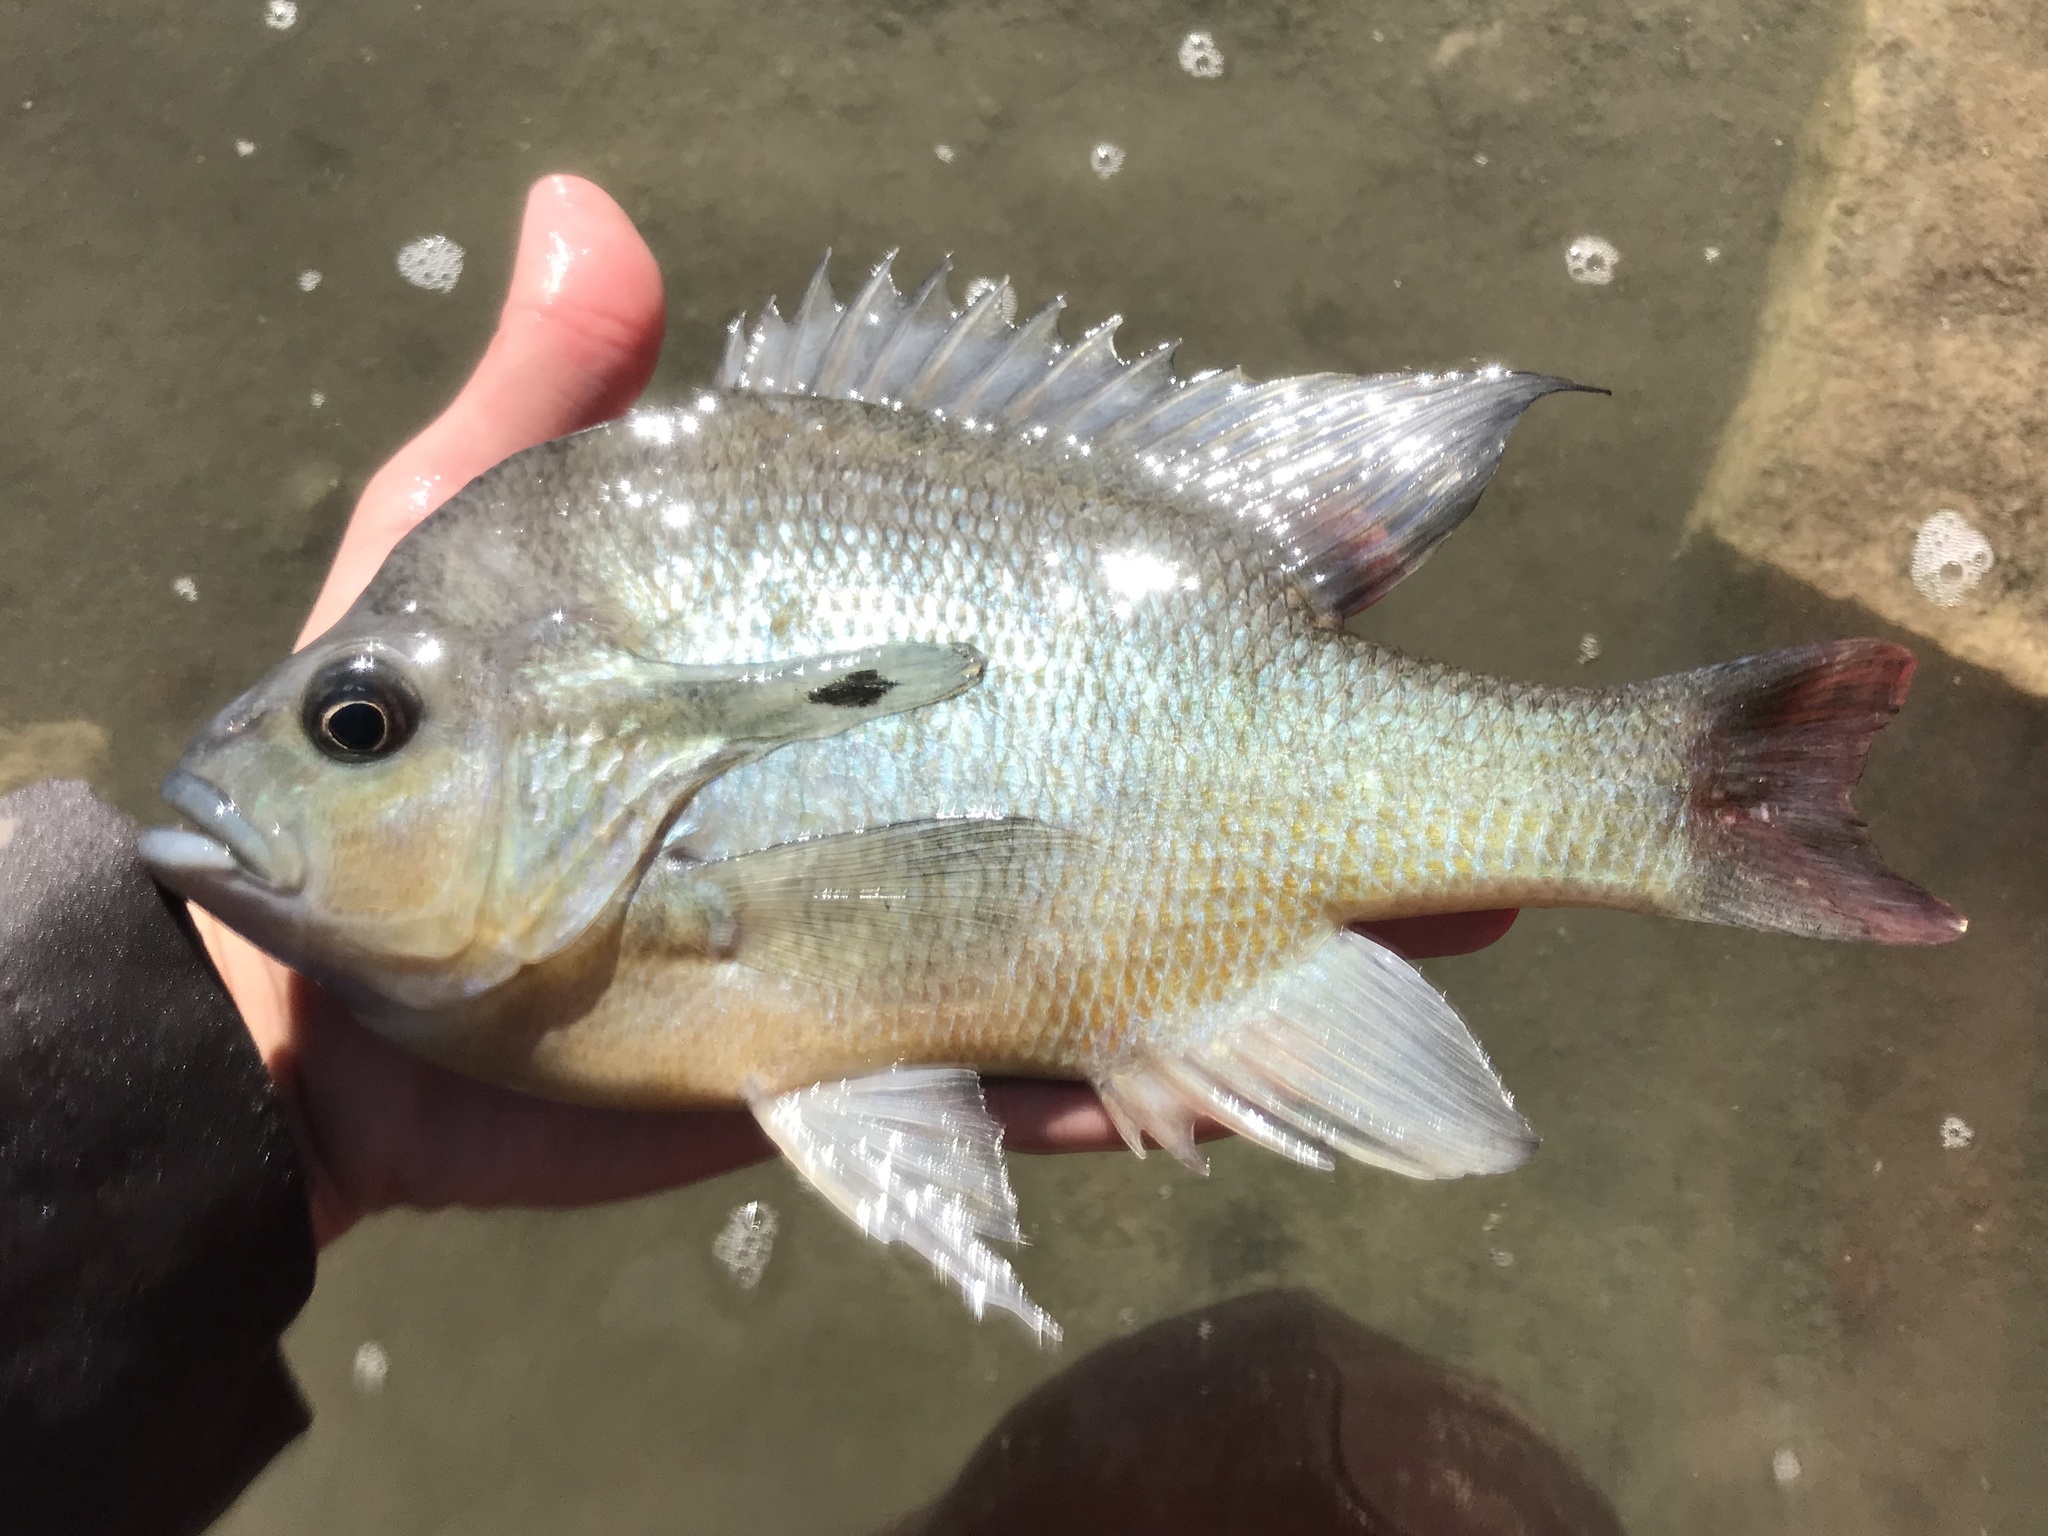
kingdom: Animalia
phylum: Chordata
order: Perciformes
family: Centrarchidae
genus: Lepomis
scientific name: Lepomis auritus
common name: Redbreast sunfish
